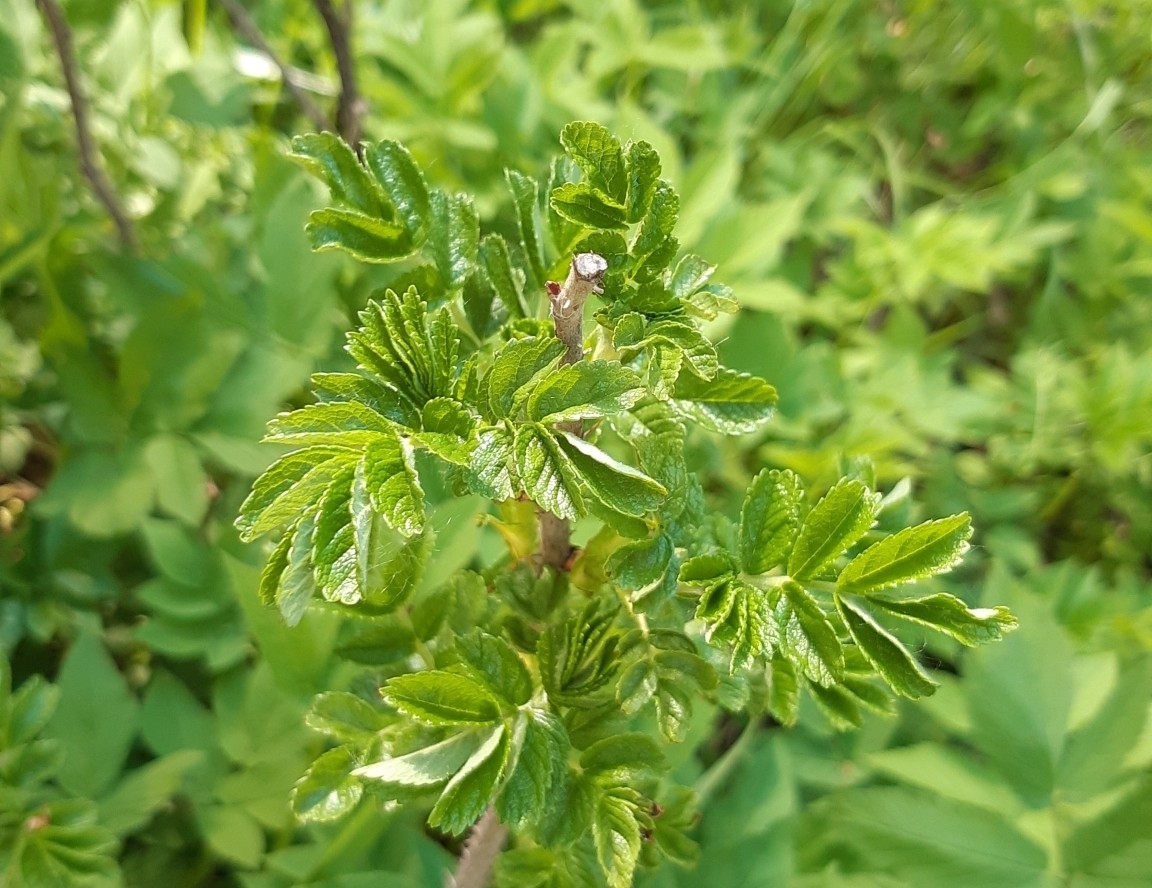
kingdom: Plantae
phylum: Tracheophyta
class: Magnoliopsida
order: Rosales
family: Rosaceae
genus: Rosa
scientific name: Rosa rugosa
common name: Japanese rose
